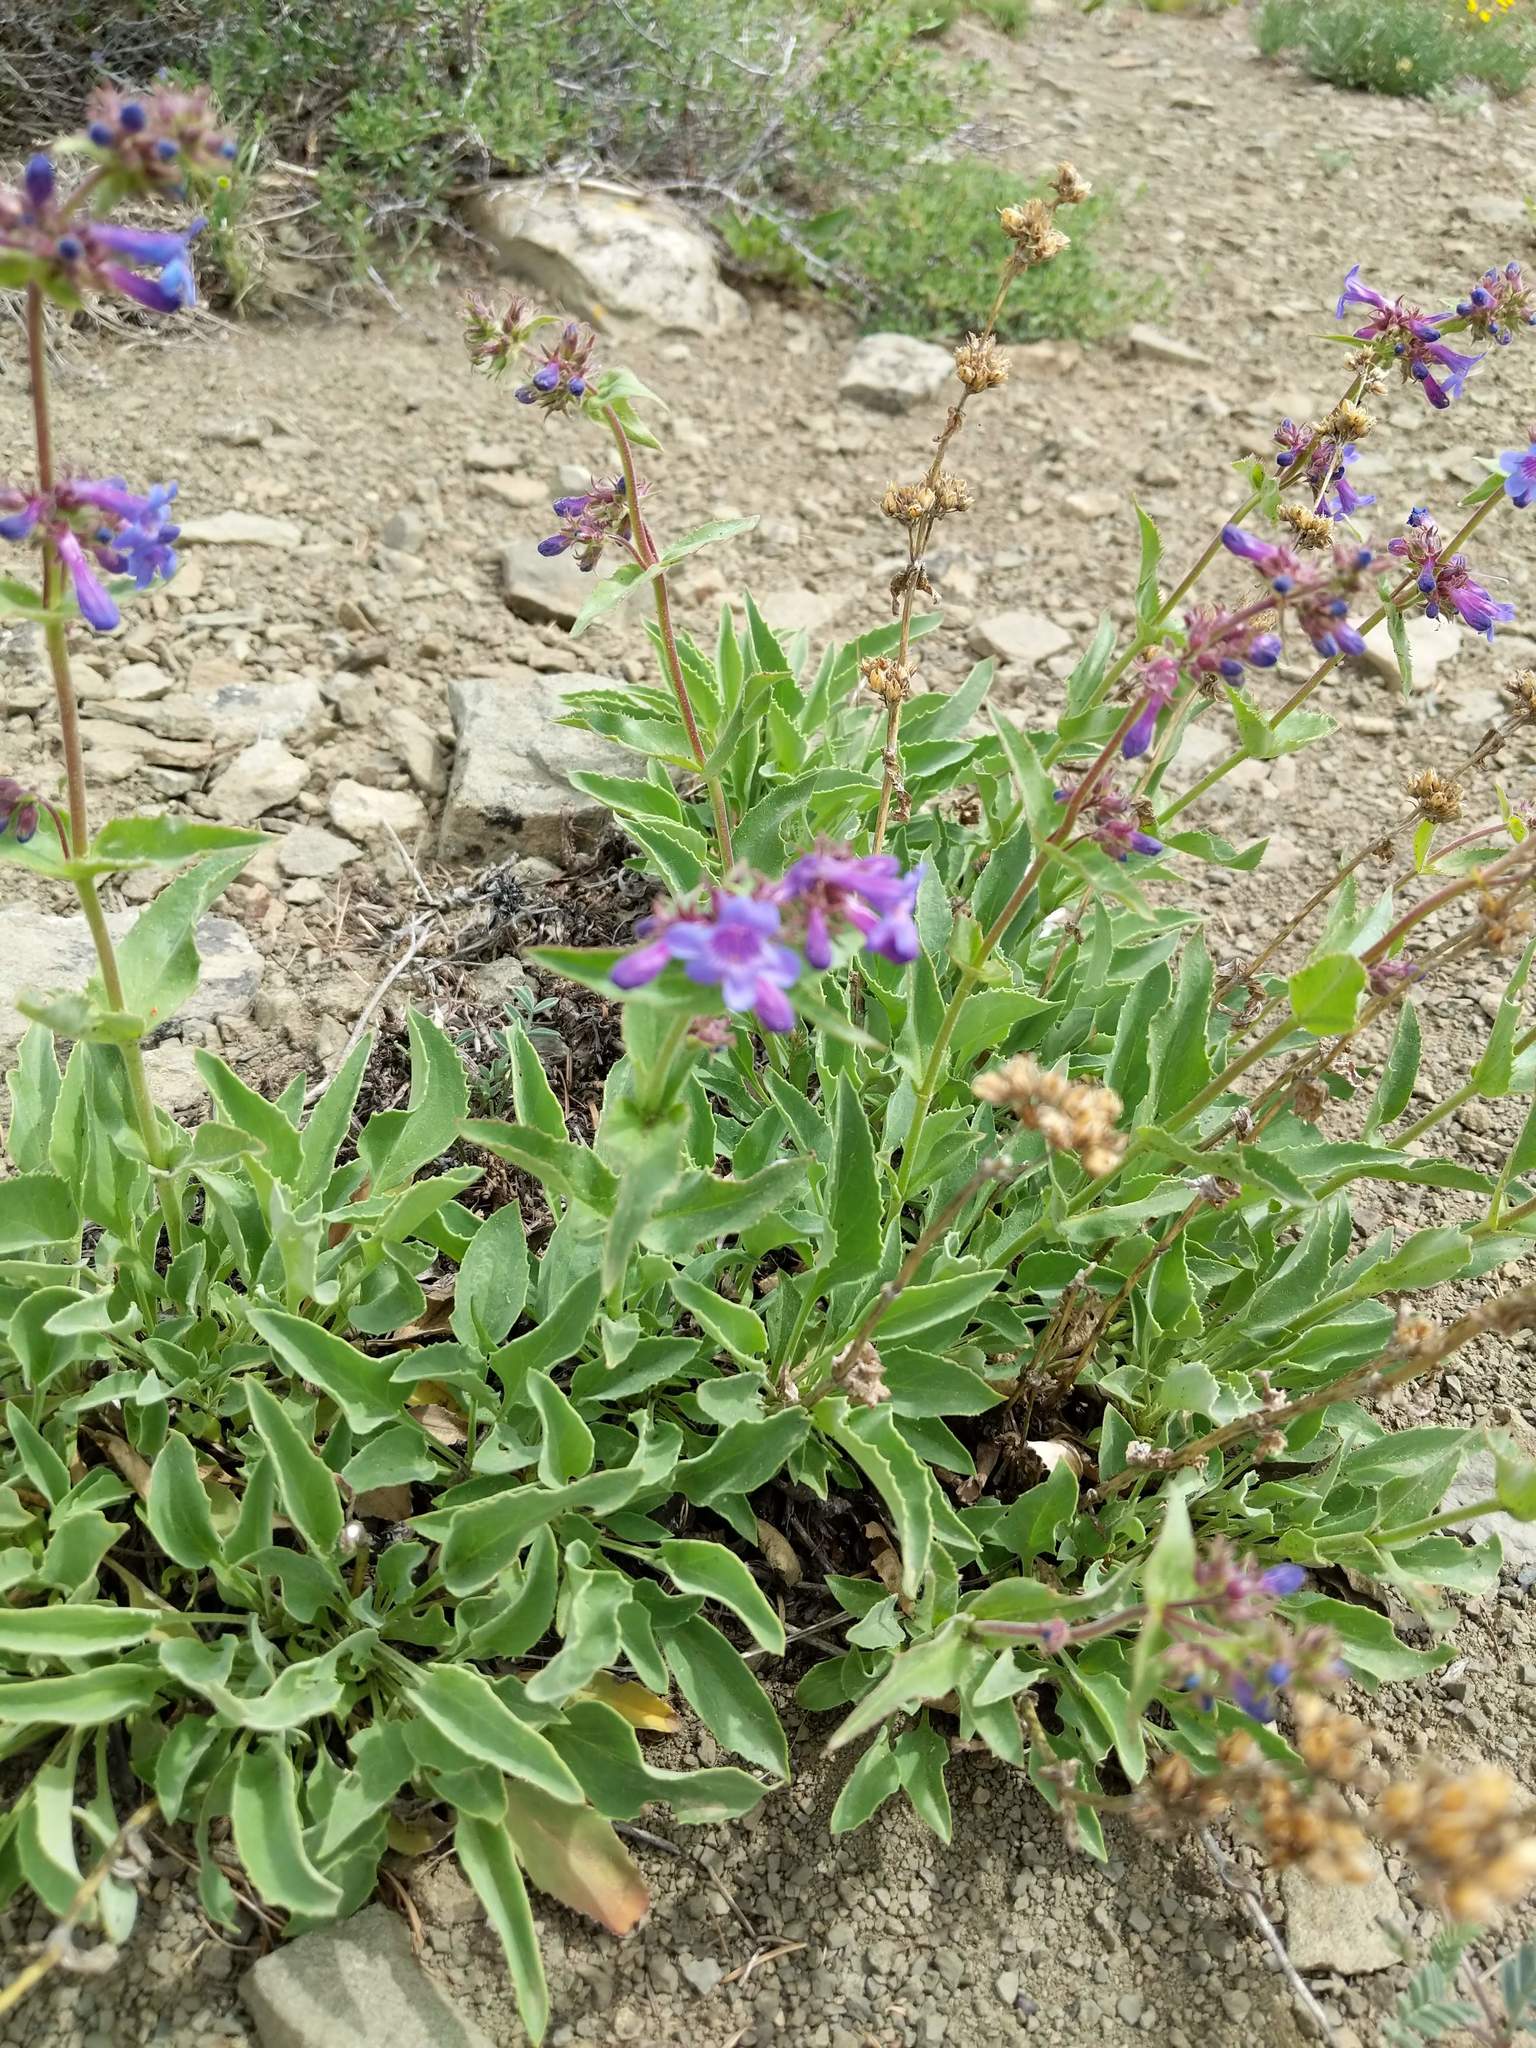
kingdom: Plantae
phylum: Tracheophyta
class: Magnoliopsida
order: Lamiales
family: Plantaginaceae
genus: Penstemon
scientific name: Penstemon pruinosus
